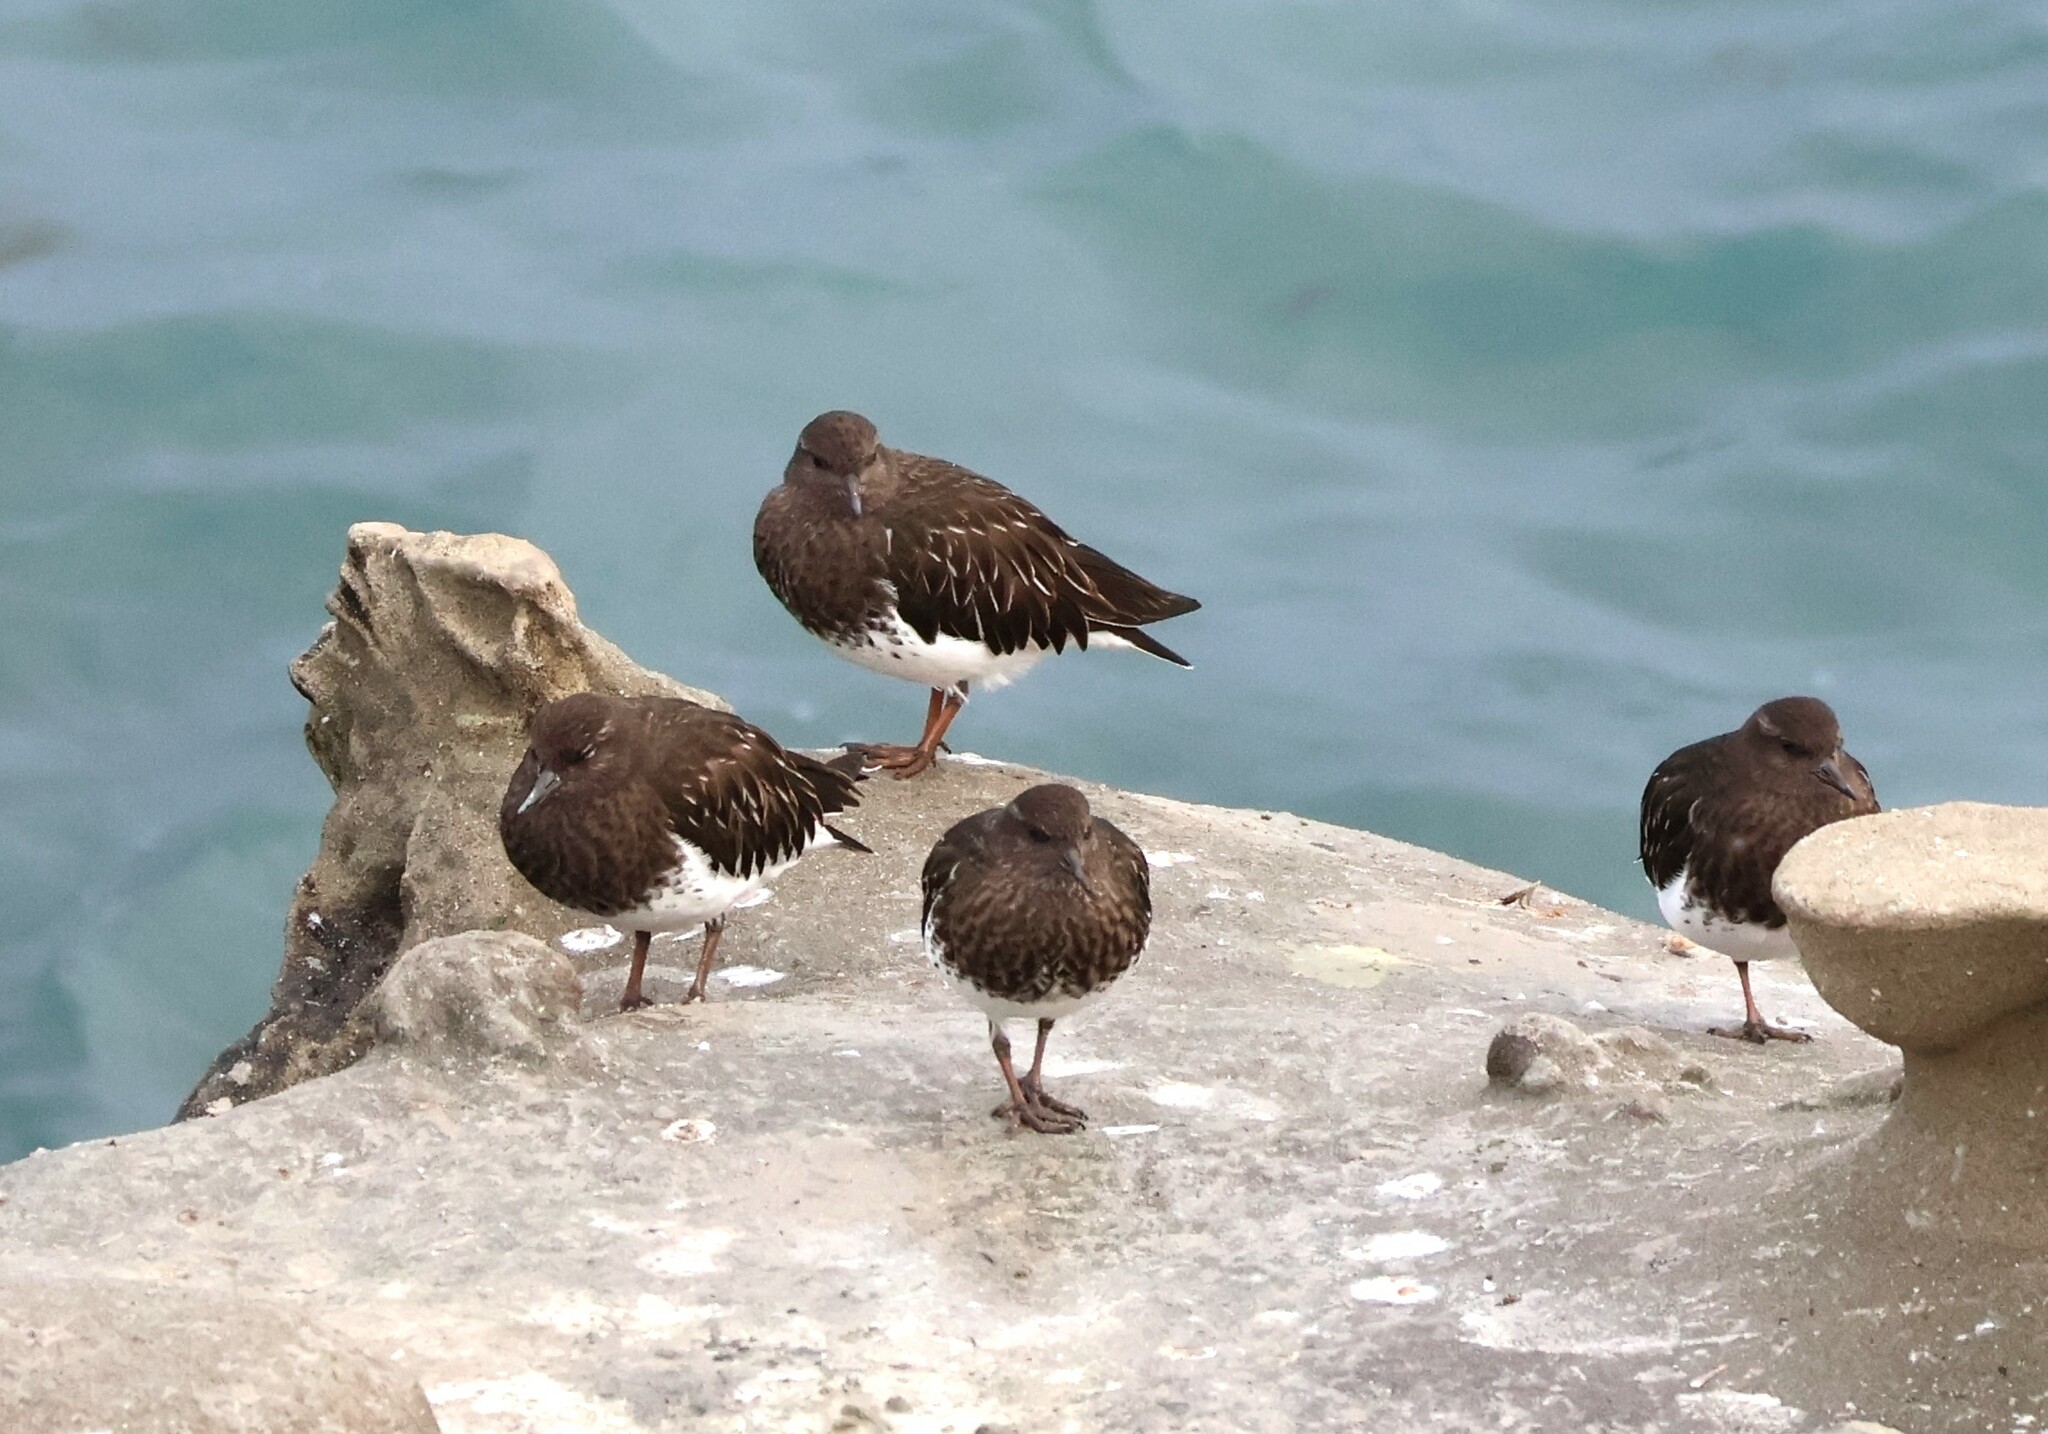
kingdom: Animalia
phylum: Chordata
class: Aves
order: Charadriiformes
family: Scolopacidae
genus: Arenaria
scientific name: Arenaria melanocephala
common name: Black turnstone
